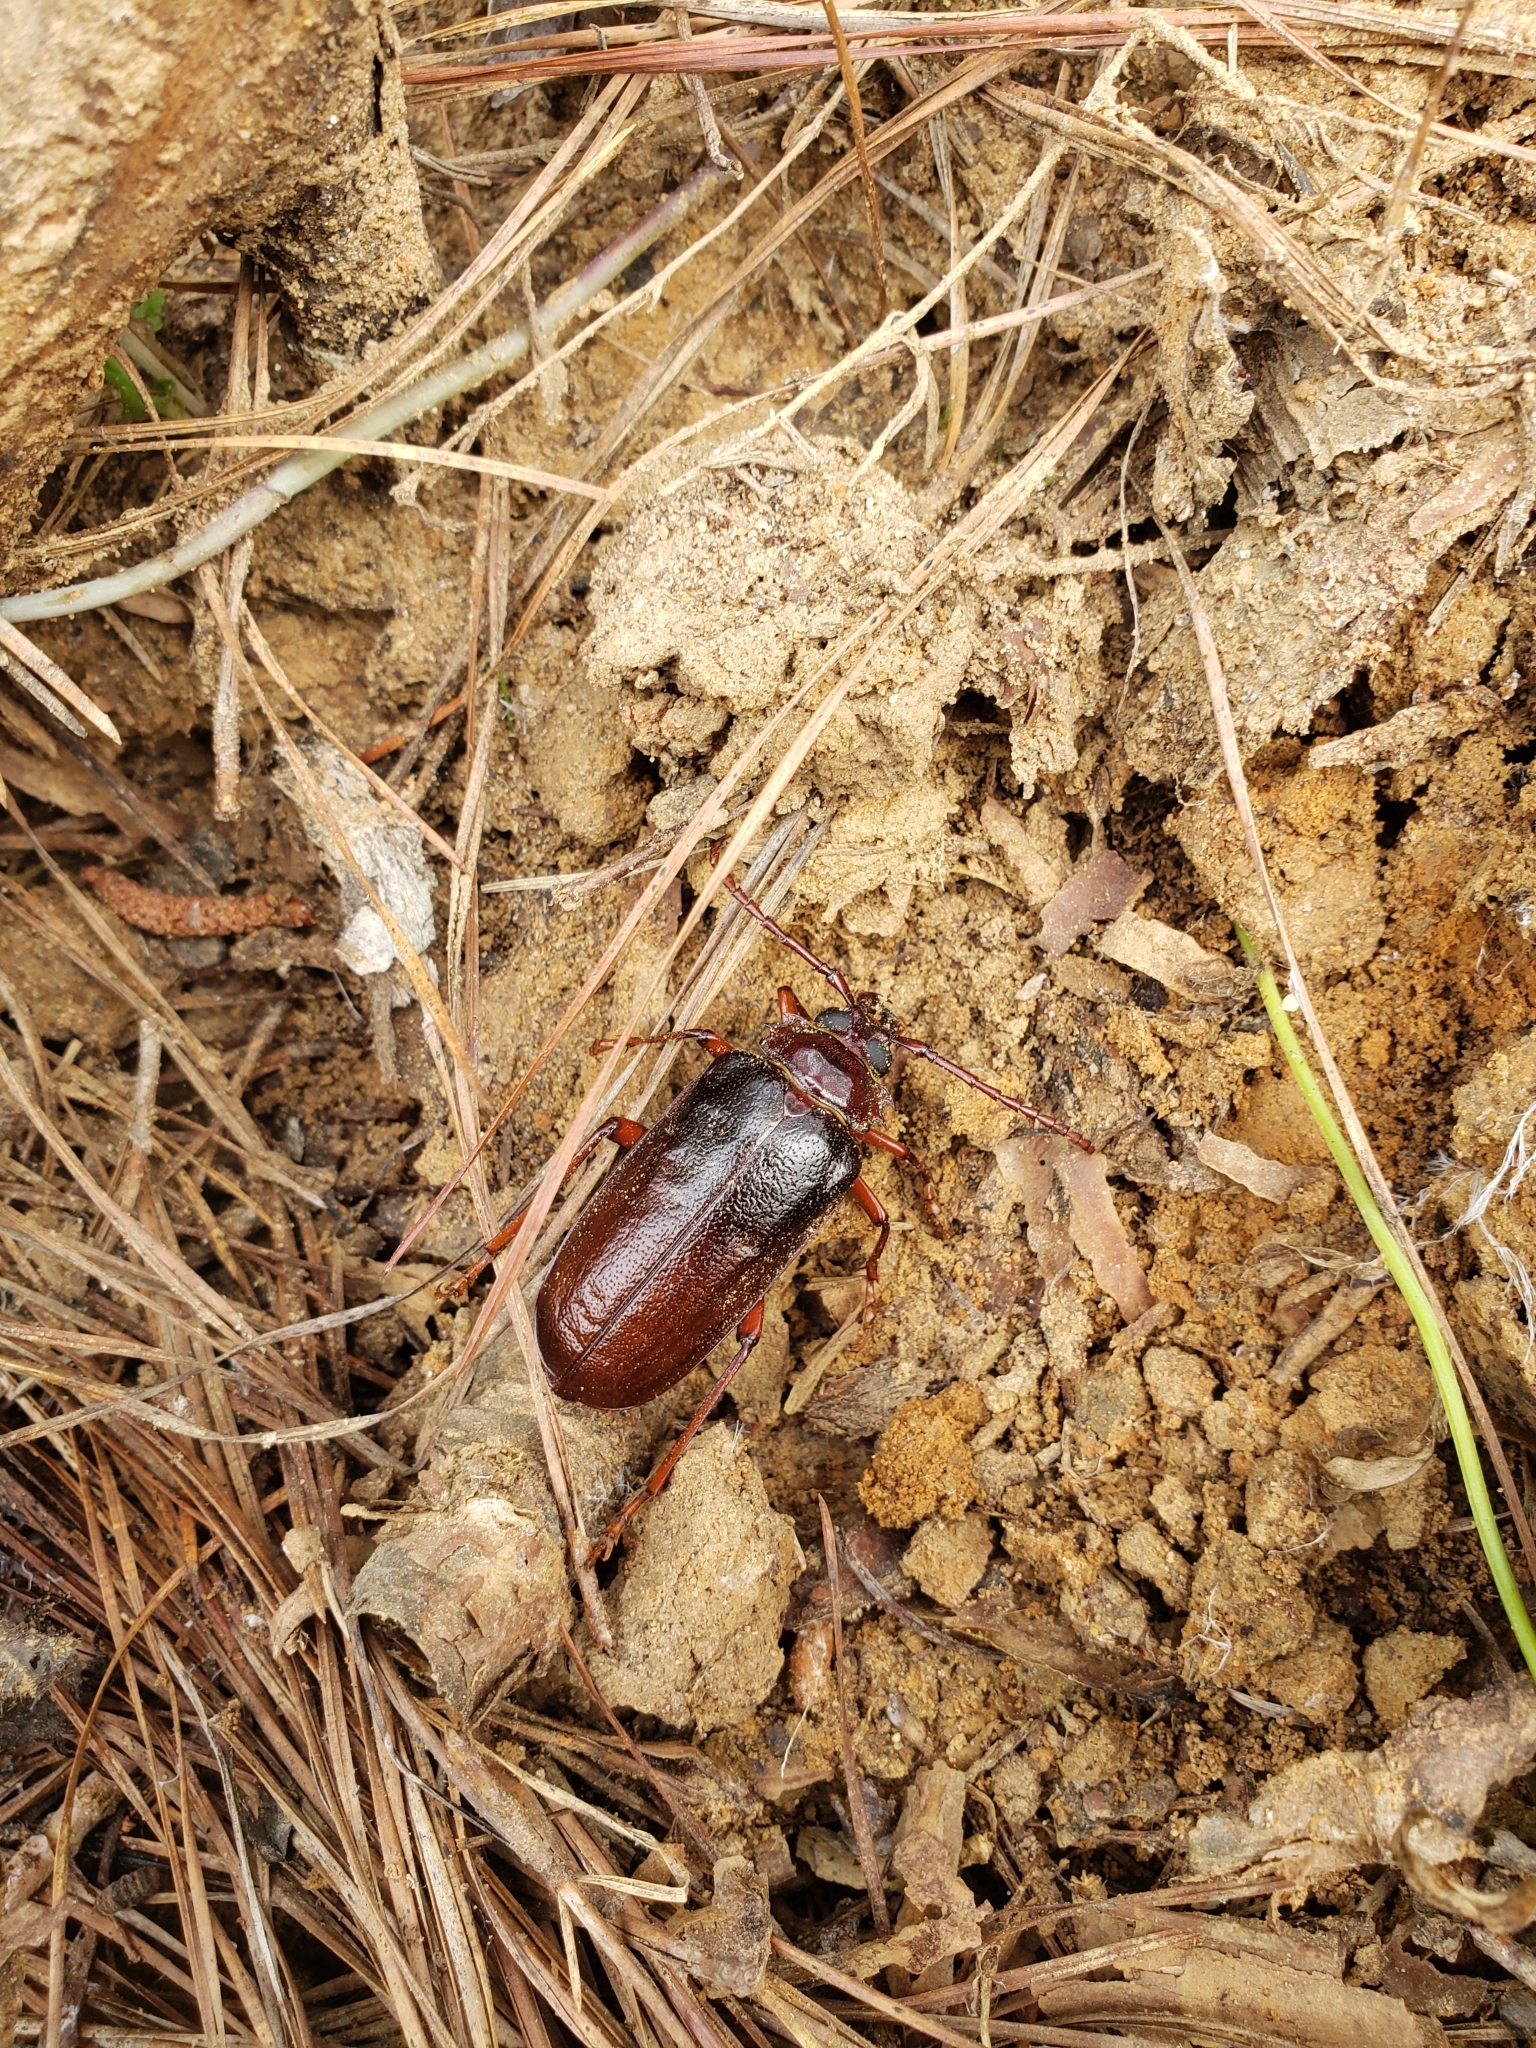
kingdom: Animalia
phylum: Arthropoda
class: Insecta
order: Coleoptera
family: Cerambycidae
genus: Prionus
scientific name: Prionus pocularis
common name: Tooth-necked longhorn beetle
